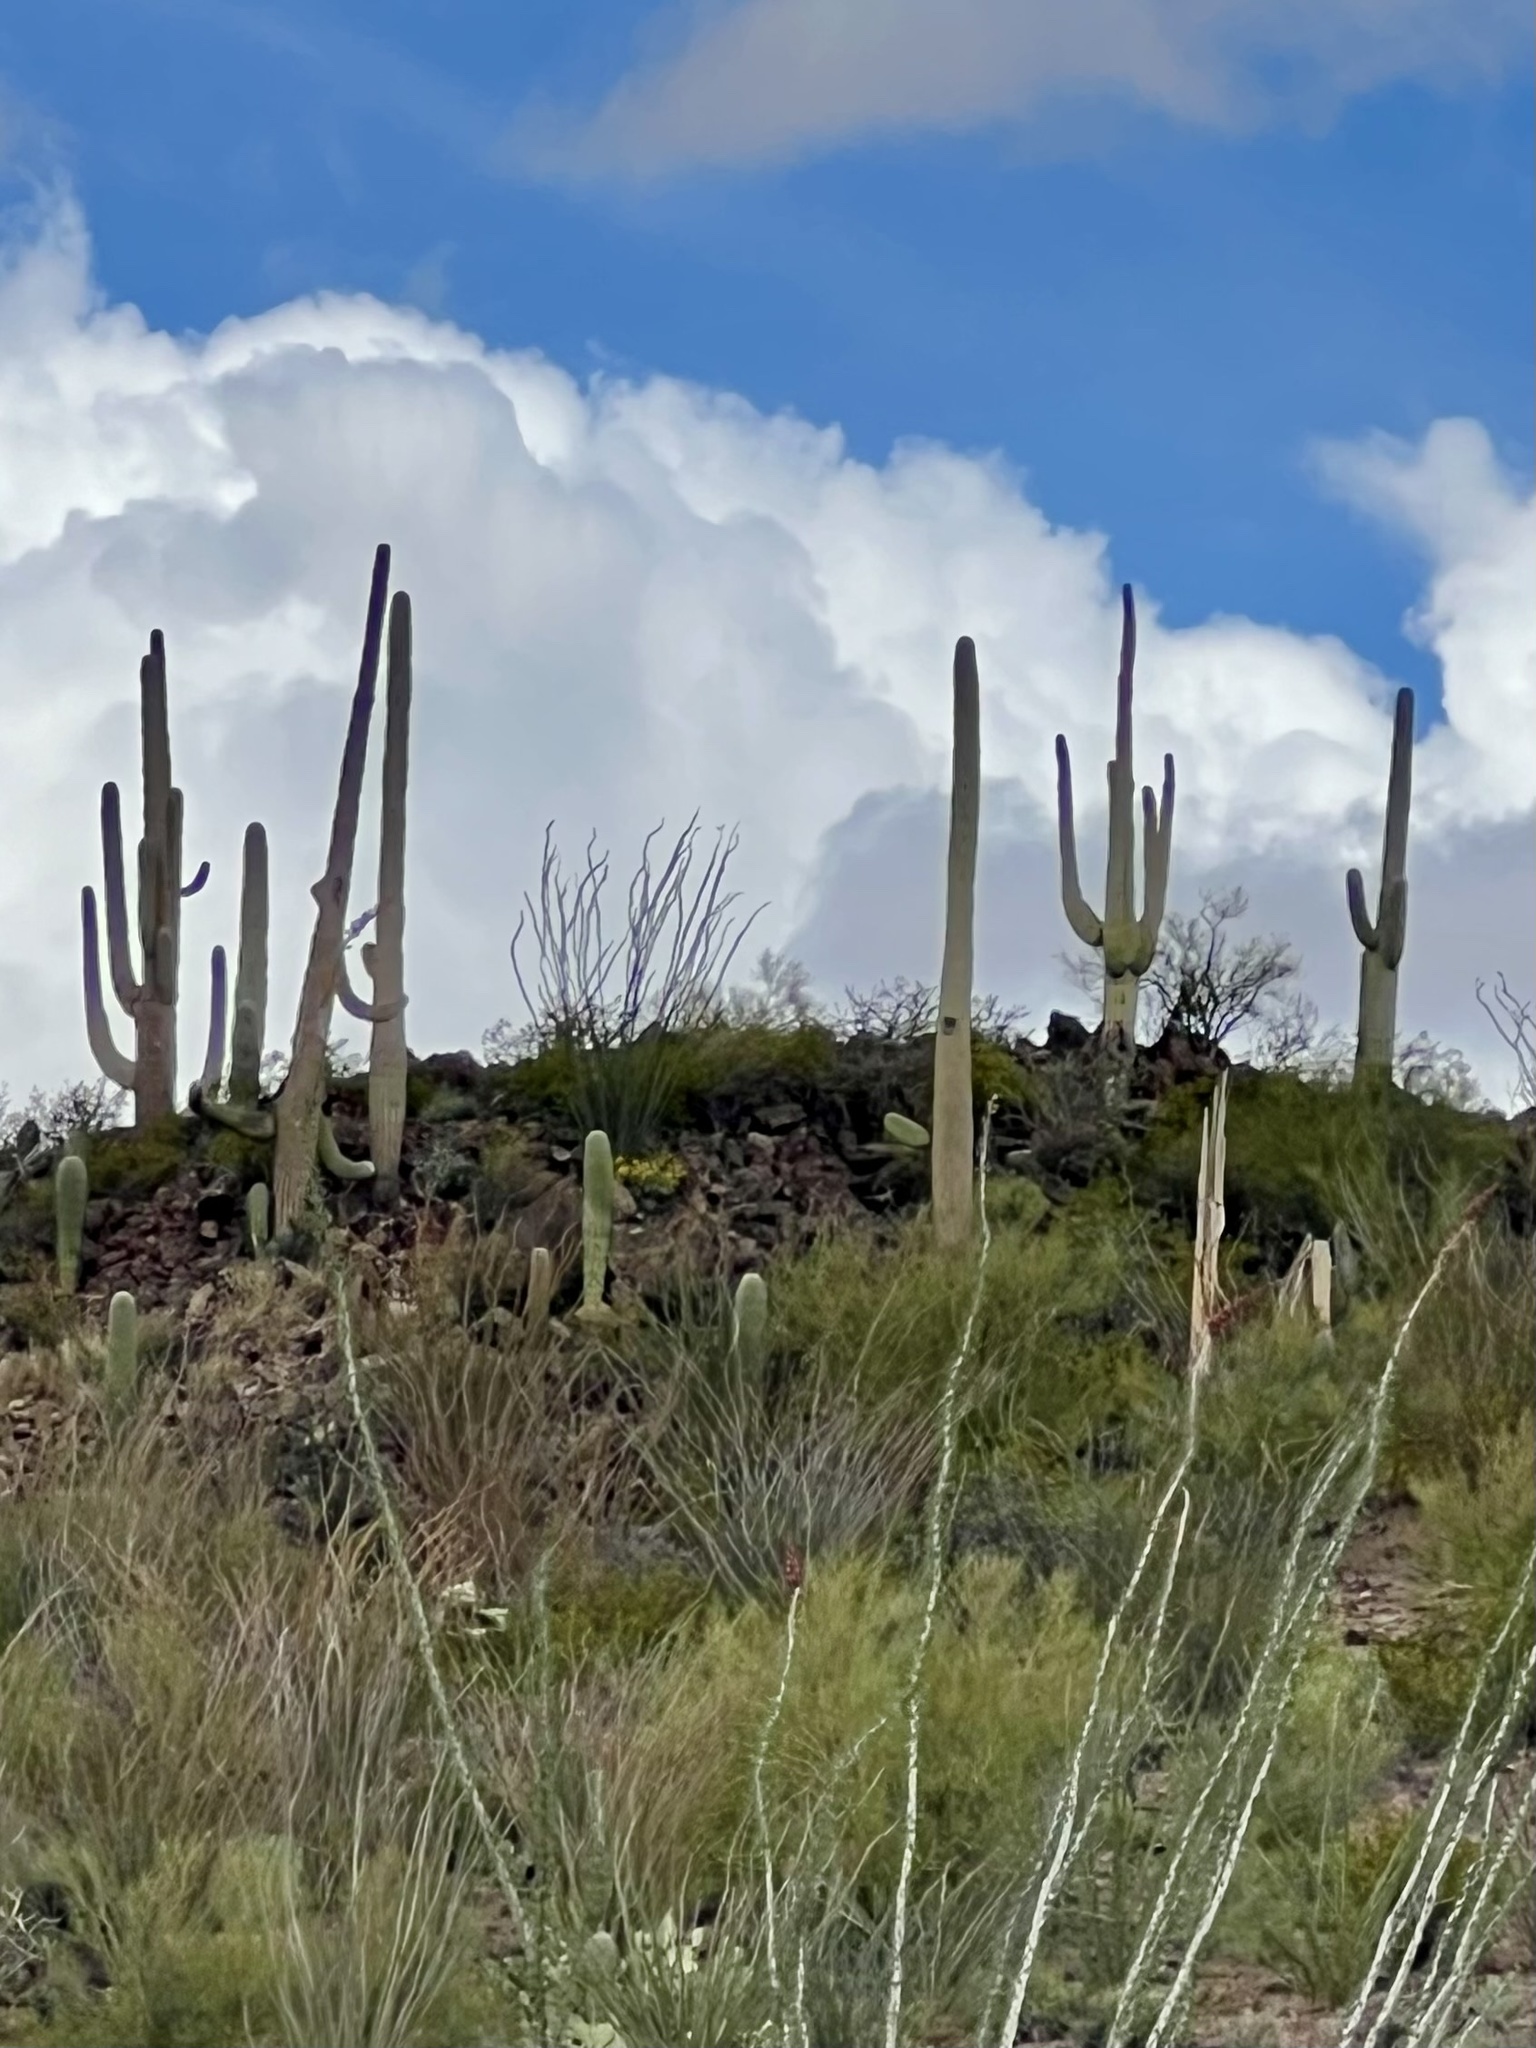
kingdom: Plantae
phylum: Tracheophyta
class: Magnoliopsida
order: Caryophyllales
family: Cactaceae
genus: Carnegiea
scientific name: Carnegiea gigantea
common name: Saguaro
